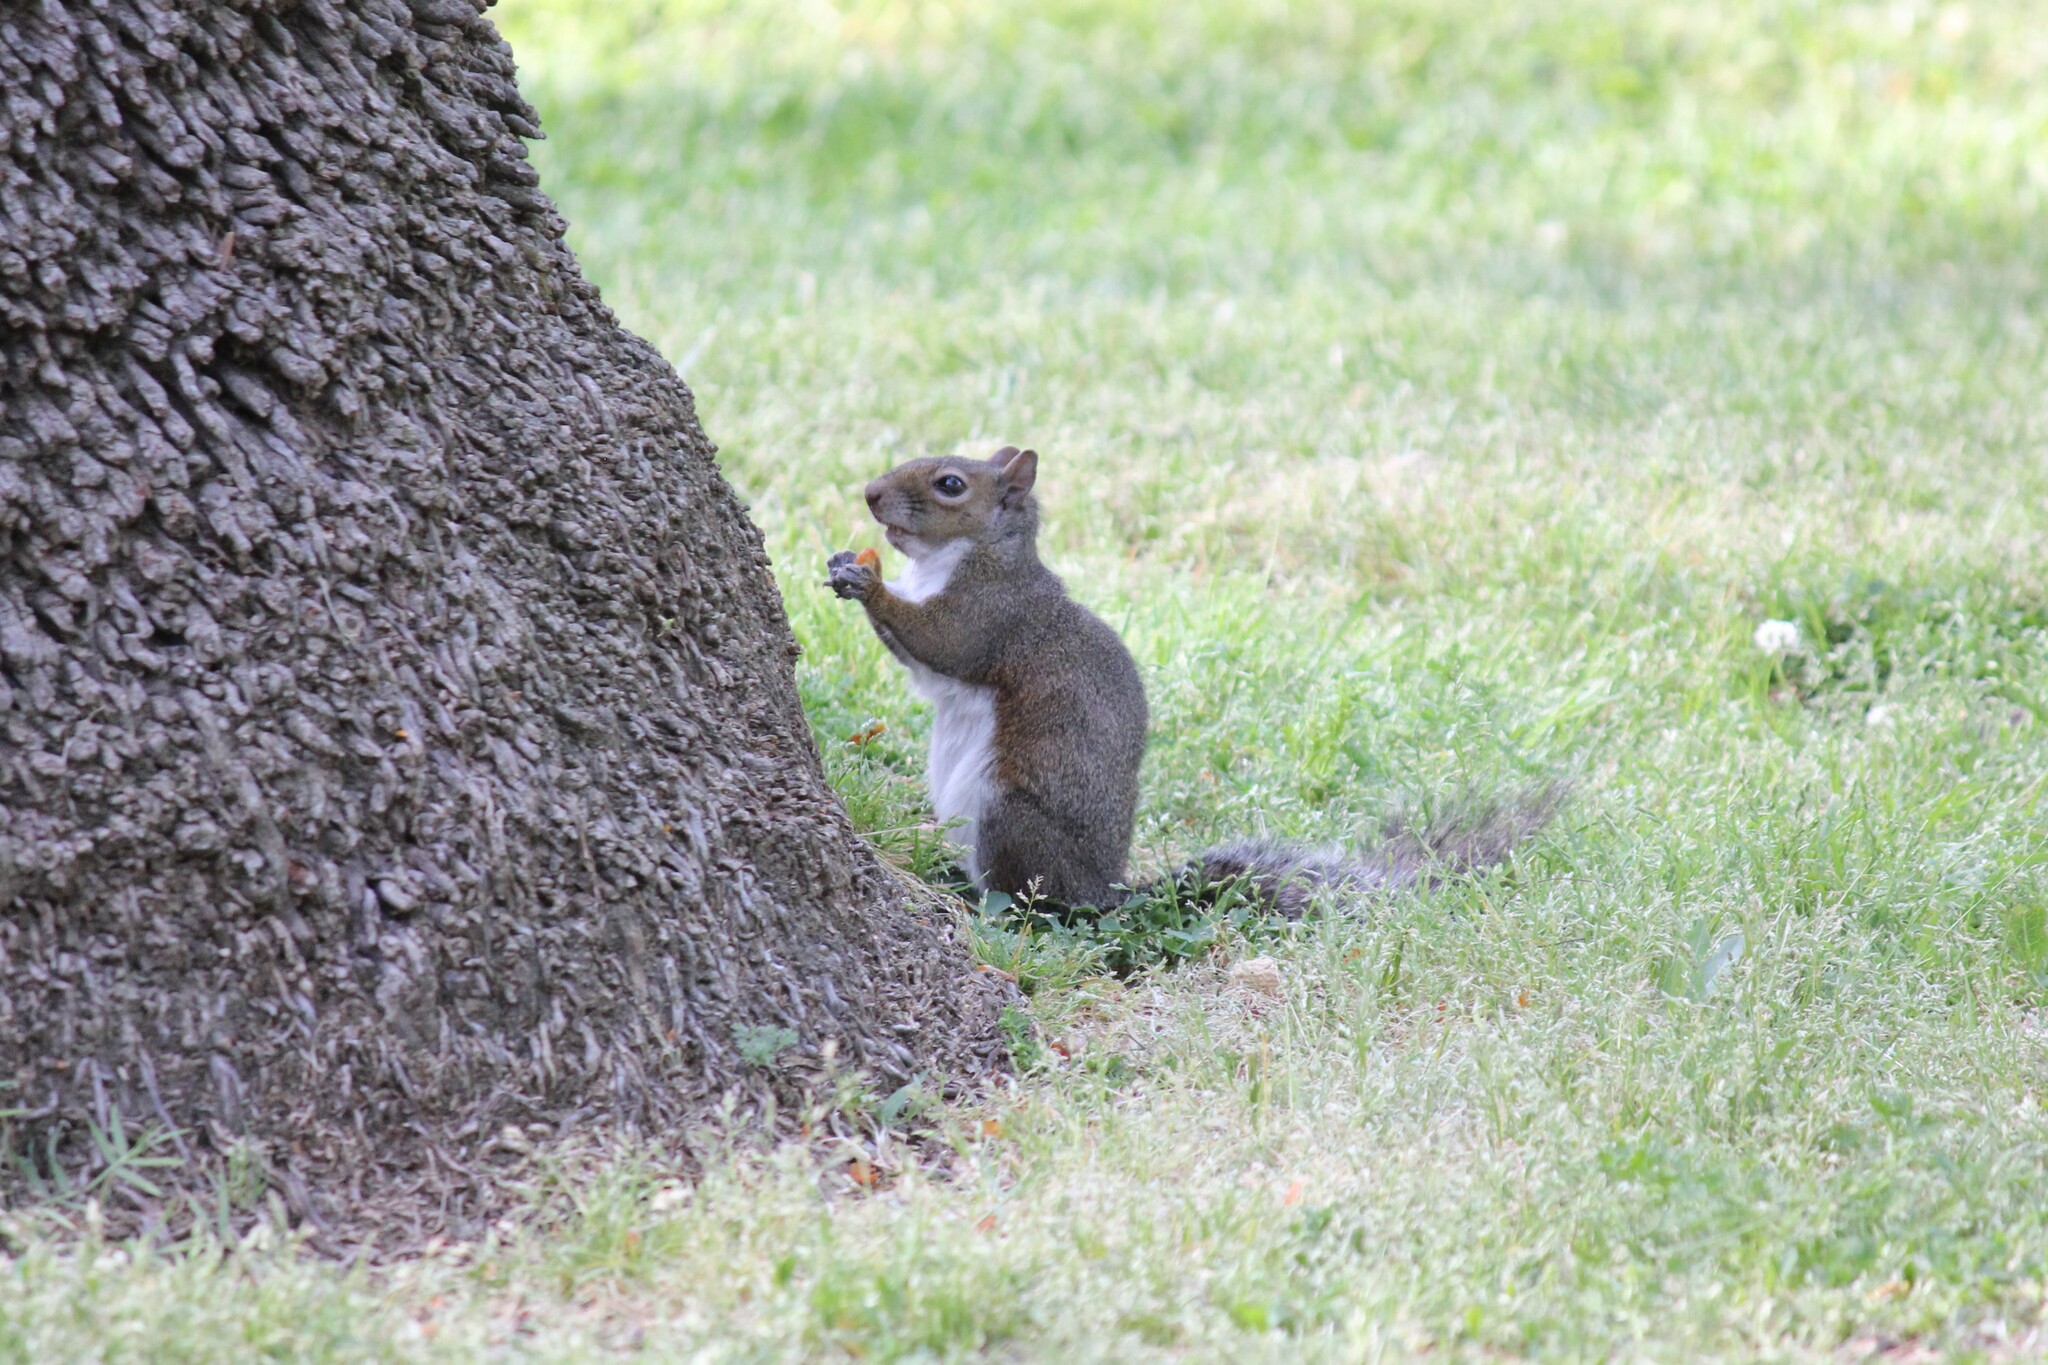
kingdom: Animalia
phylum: Chordata
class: Mammalia
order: Rodentia
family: Sciuridae
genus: Sciurus
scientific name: Sciurus carolinensis
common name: Eastern gray squirrel
